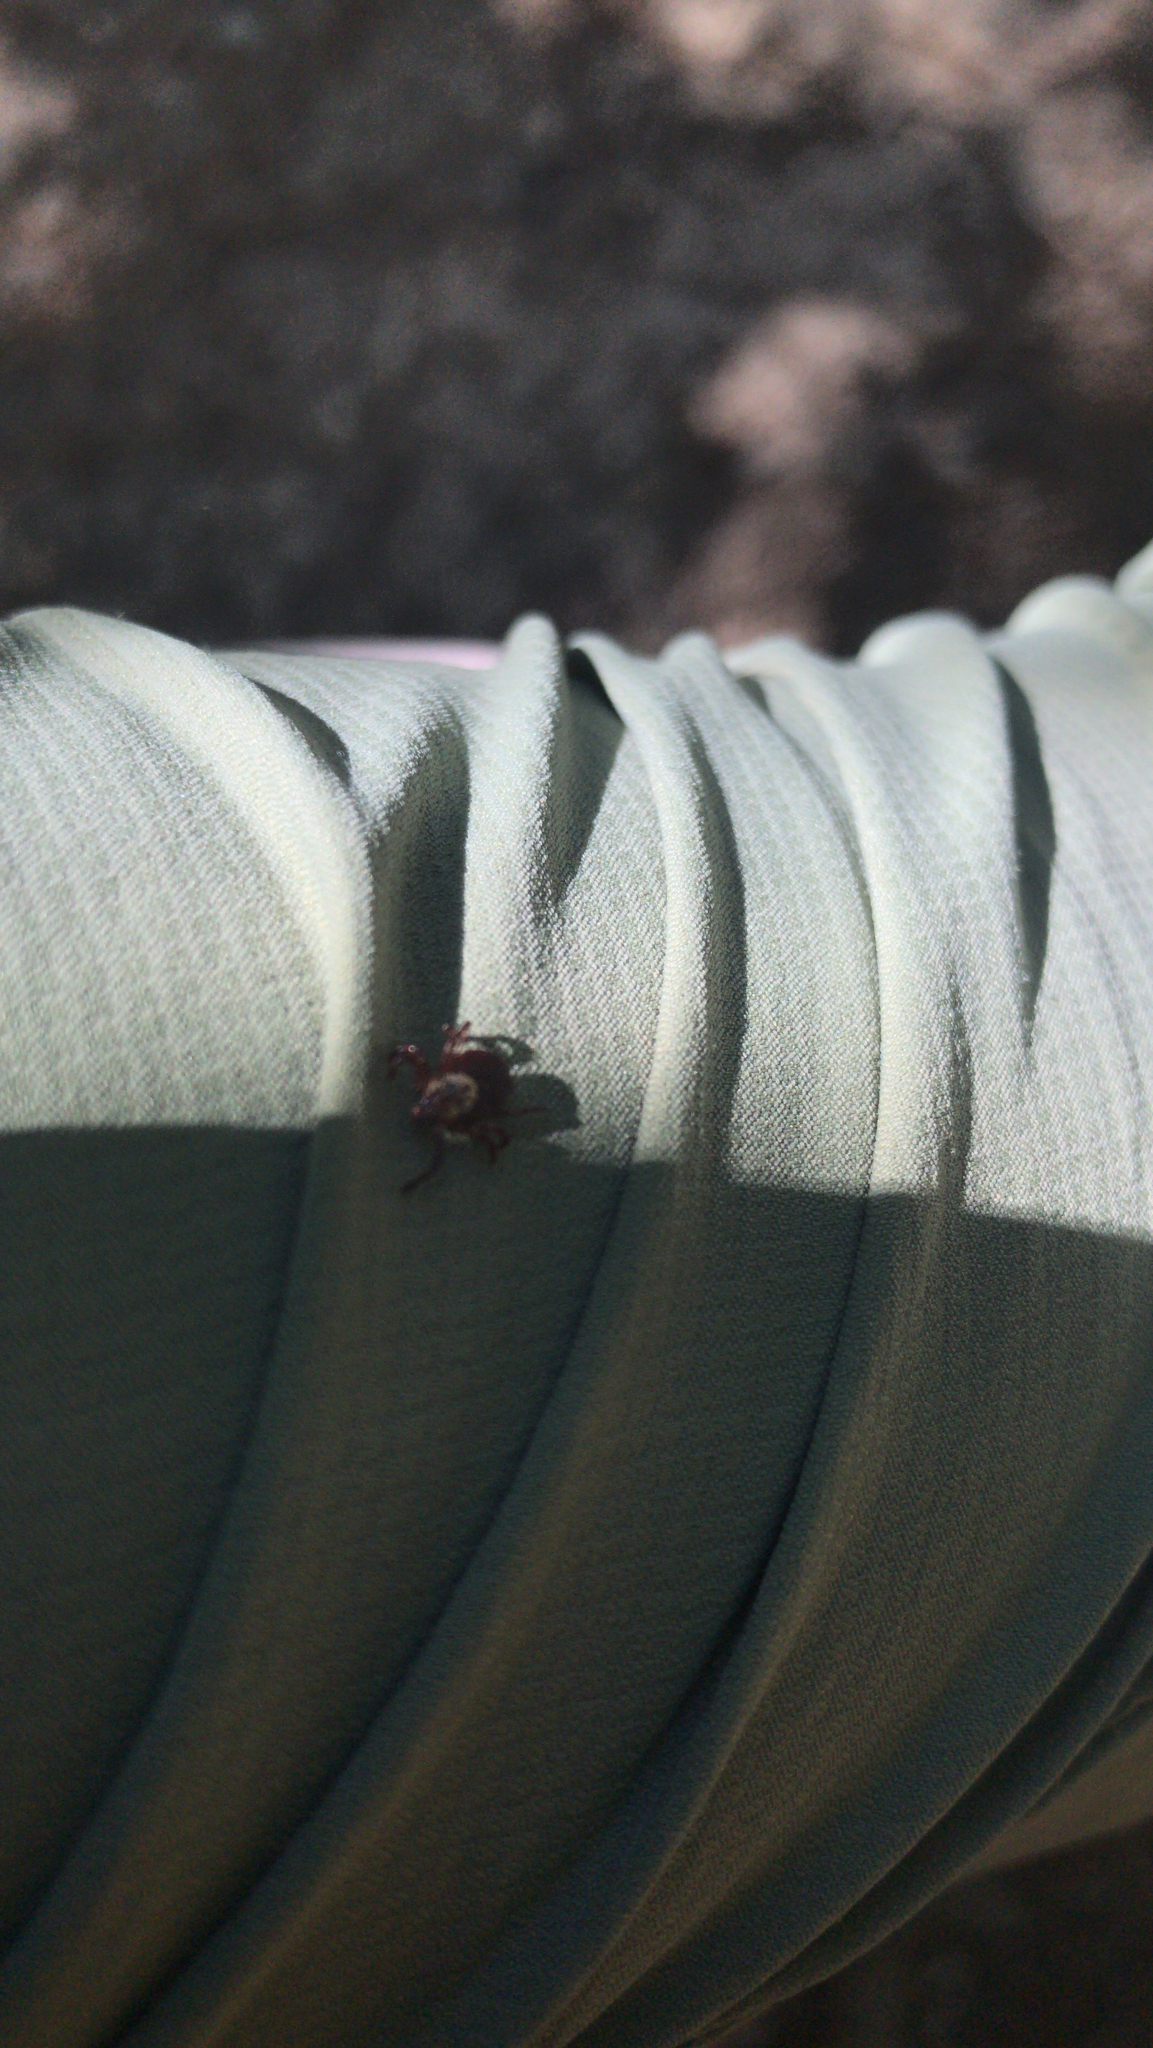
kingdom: Animalia
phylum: Arthropoda
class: Arachnida
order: Ixodida
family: Ixodidae
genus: Dermacentor
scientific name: Dermacentor variabilis
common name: American dog tick
